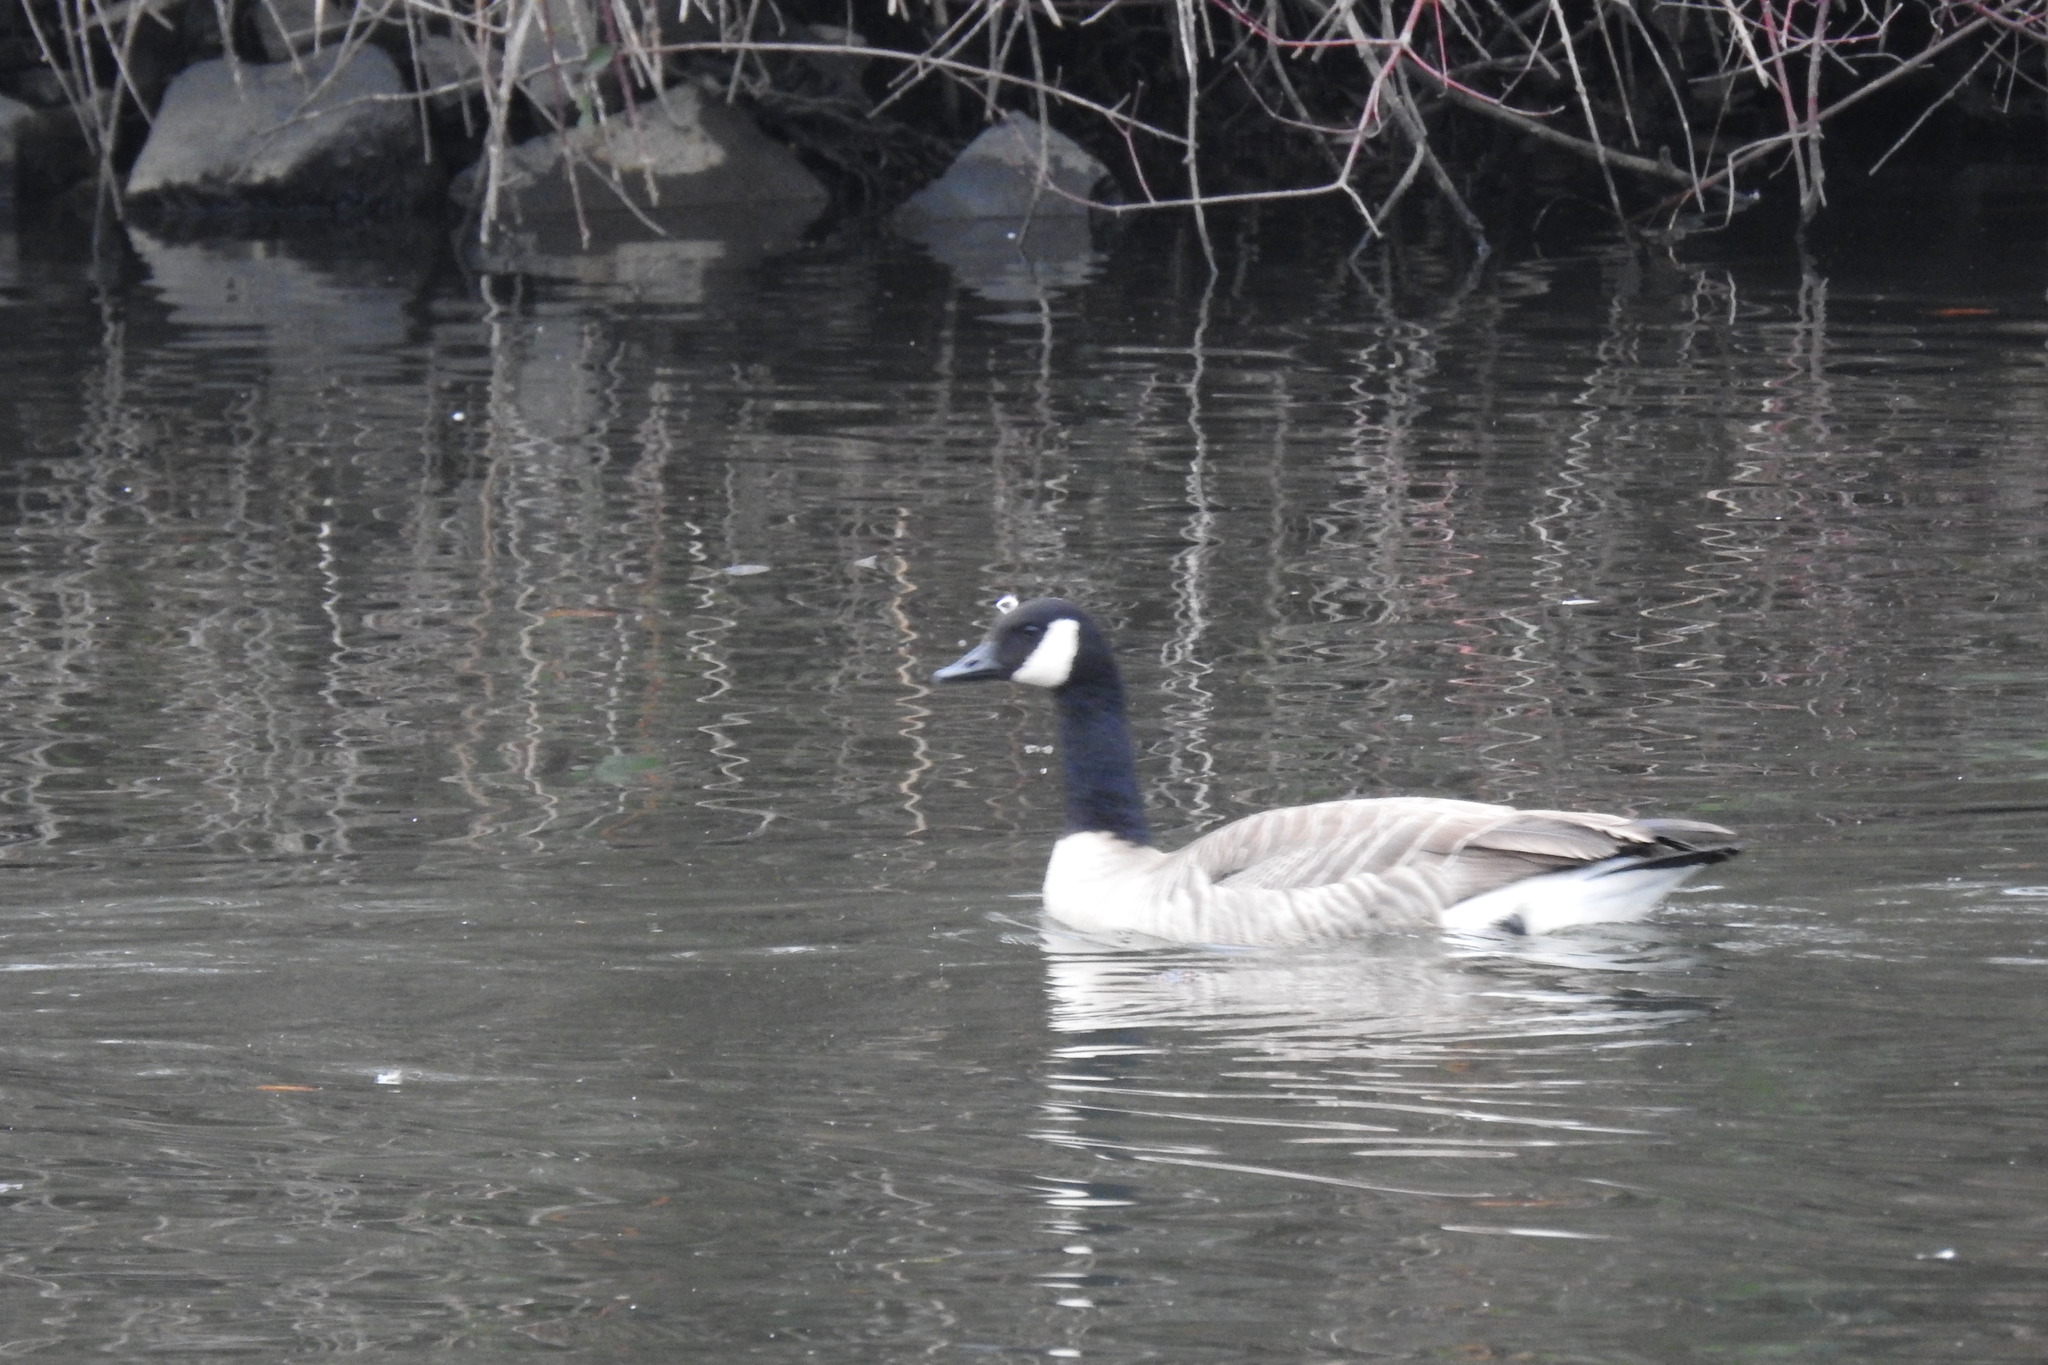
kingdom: Animalia
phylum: Chordata
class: Aves
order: Anseriformes
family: Anatidae
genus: Branta
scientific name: Branta canadensis
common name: Canada goose
